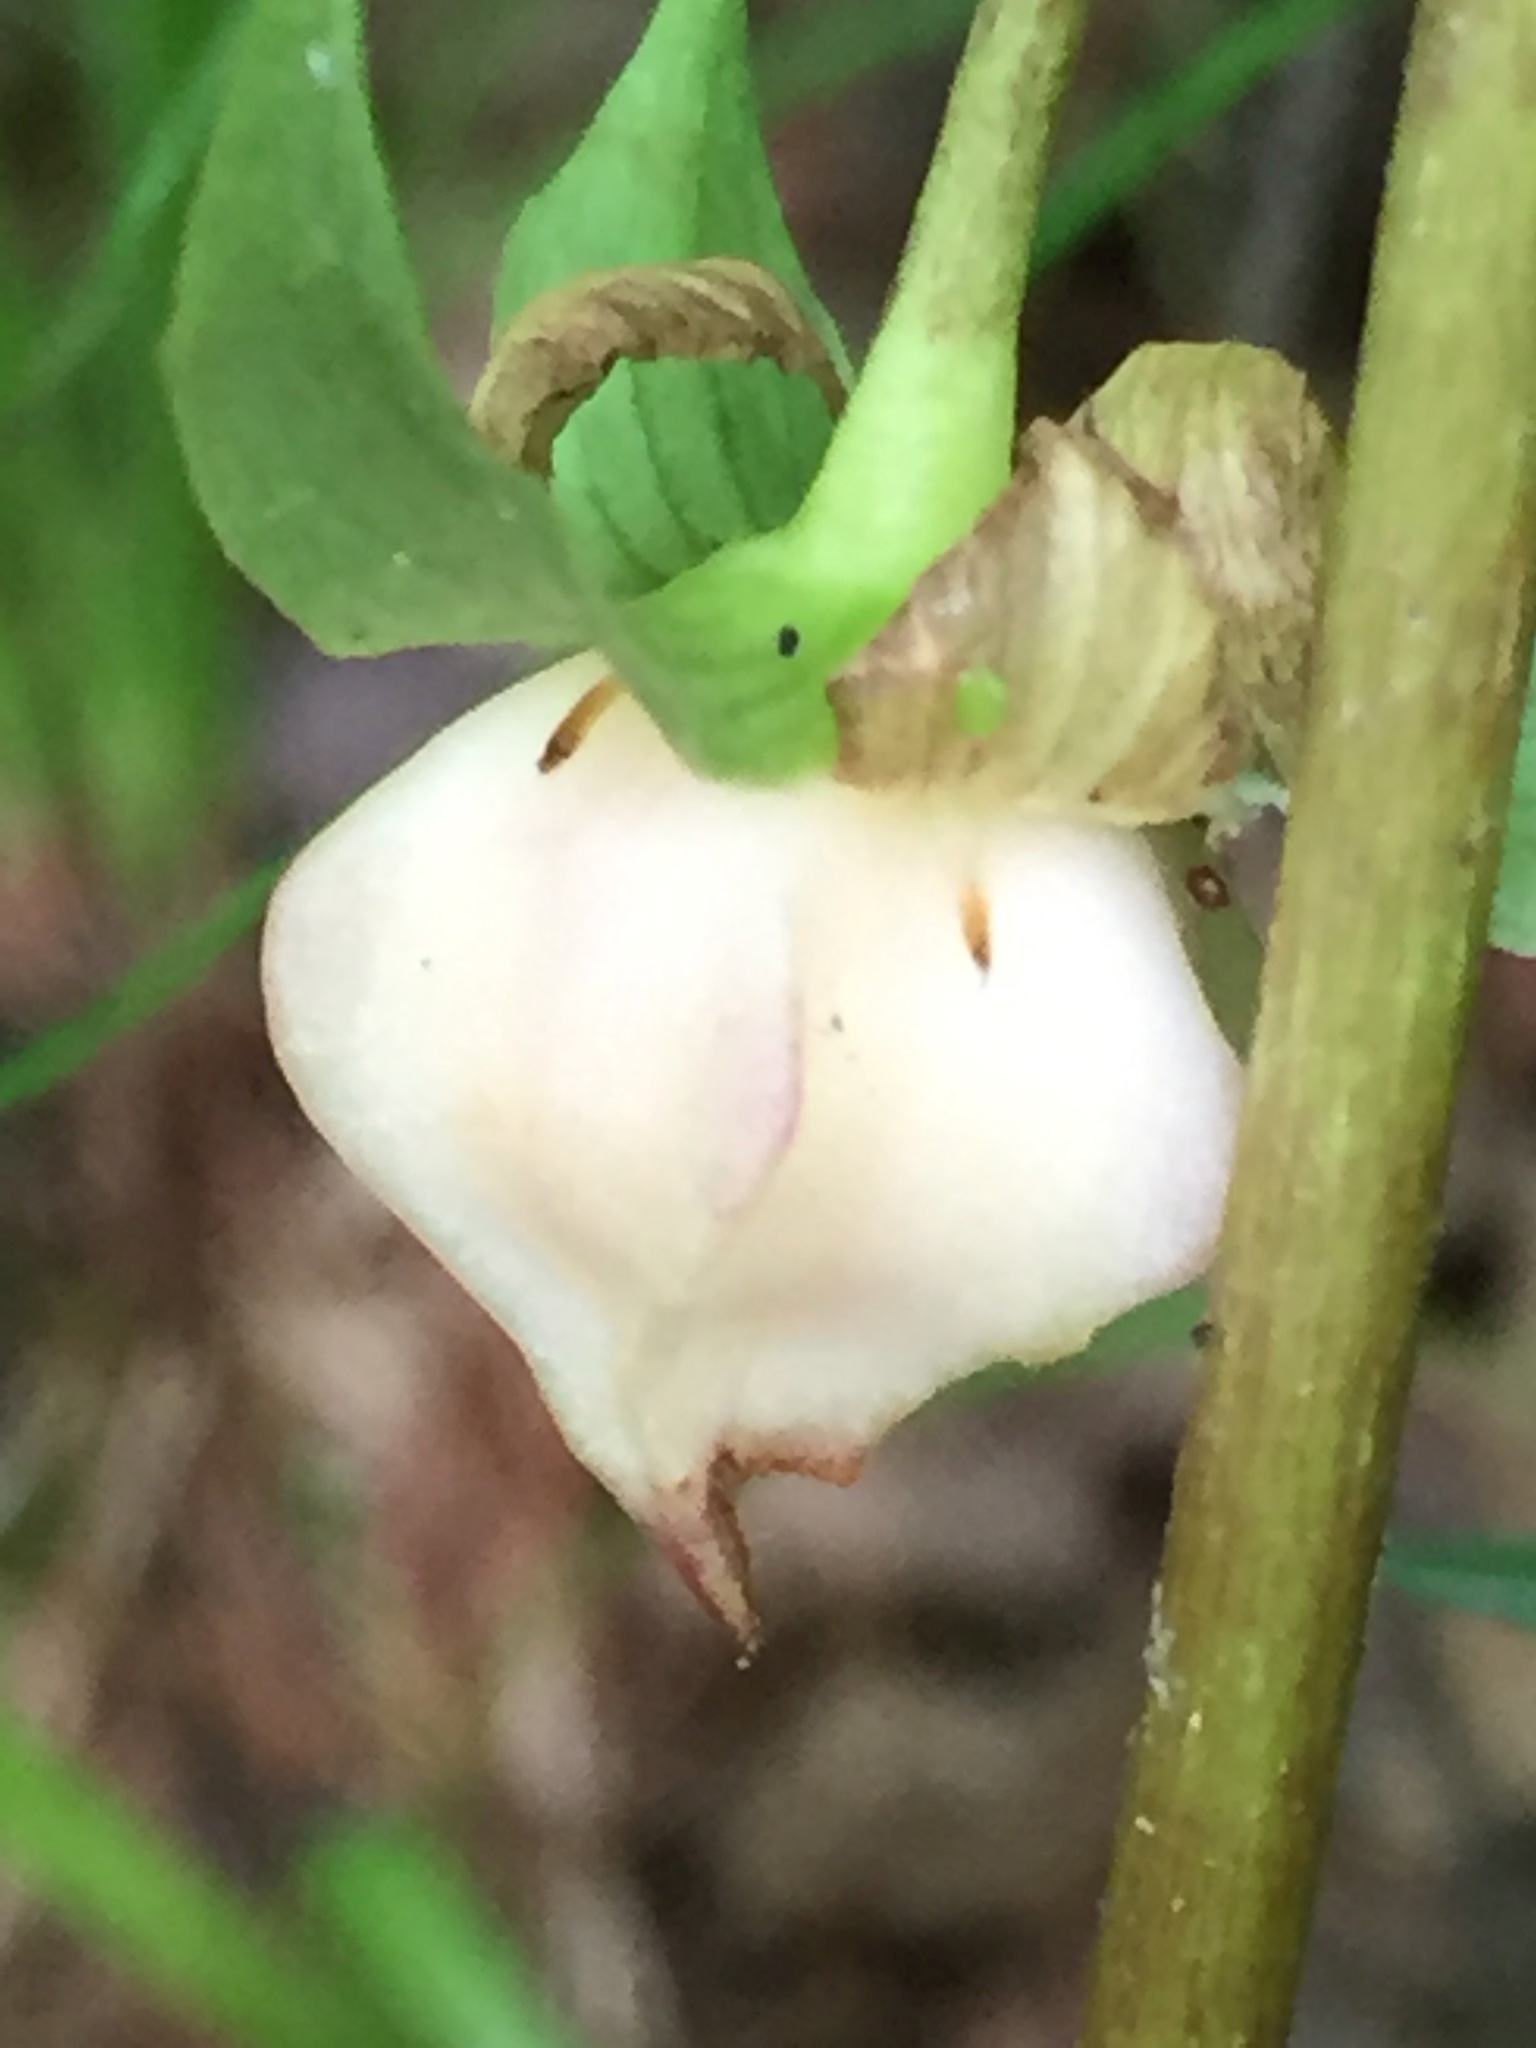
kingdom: Plantae
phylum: Tracheophyta
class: Liliopsida
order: Liliales
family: Melanthiaceae
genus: Trillium
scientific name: Trillium cernuum
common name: Nodding trillium
